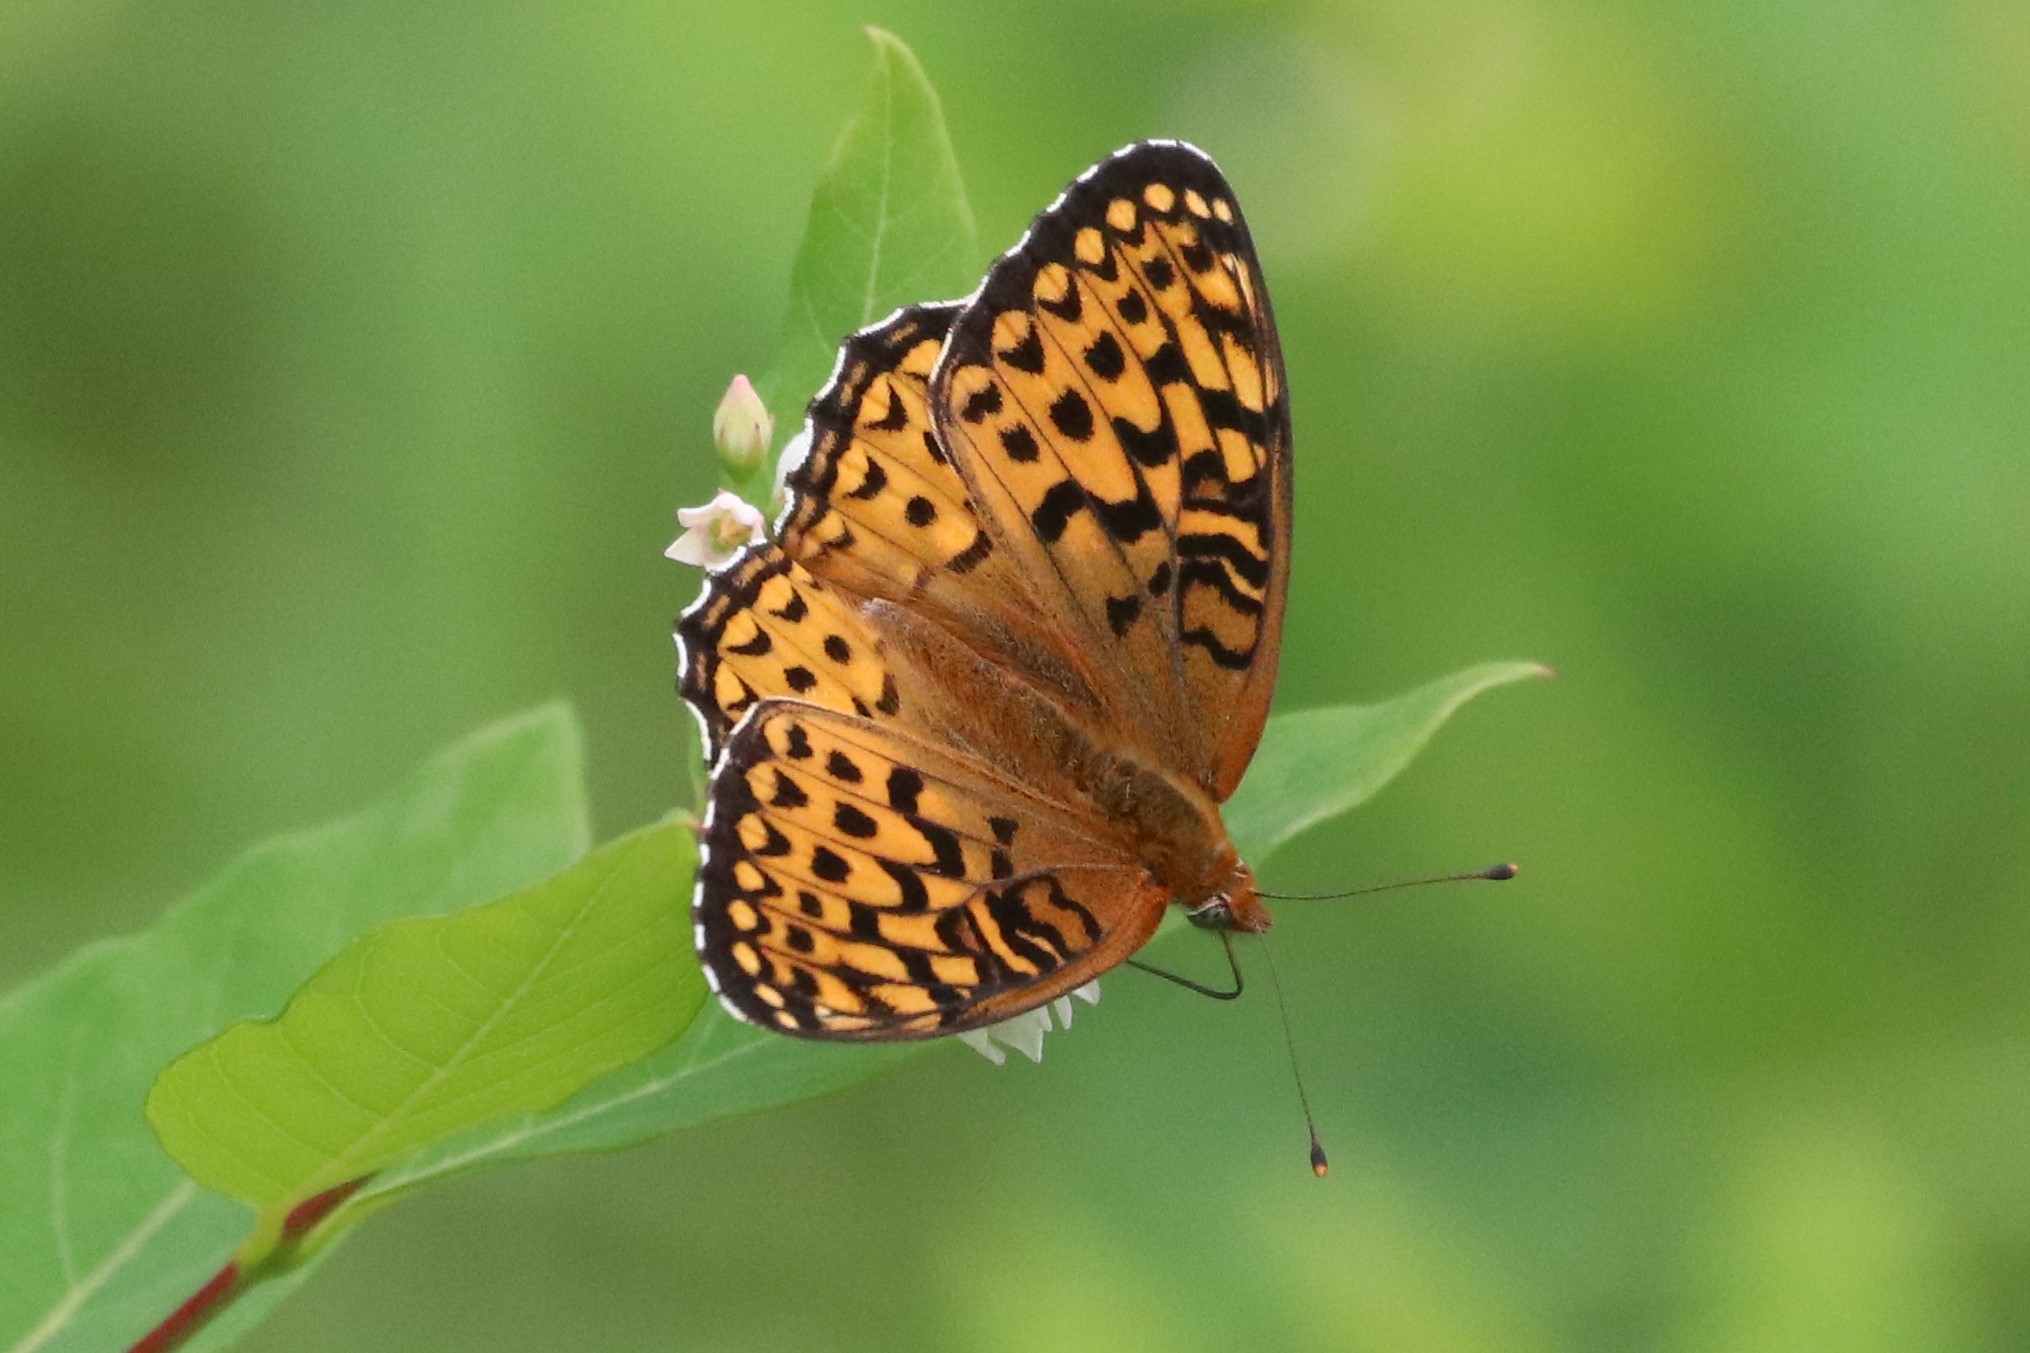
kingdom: Animalia
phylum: Arthropoda
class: Insecta
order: Lepidoptera
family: Nymphalidae
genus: Speyeria
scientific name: Speyeria atlantis
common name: Atlantis fritillary
